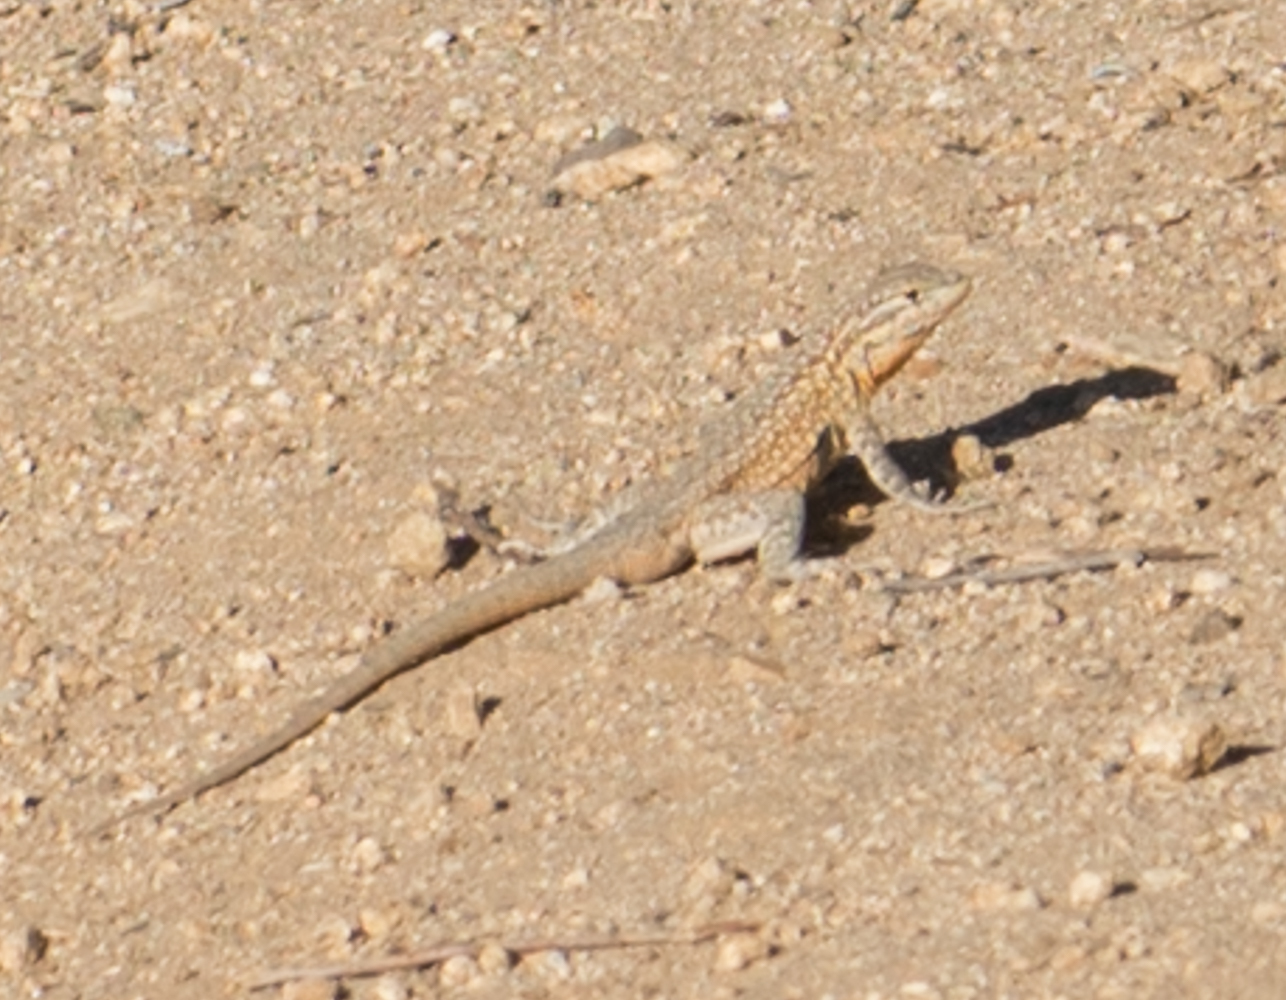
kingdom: Animalia
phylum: Chordata
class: Squamata
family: Phrynosomatidae
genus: Uta
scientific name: Uta stansburiana
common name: Side-blotched lizard
